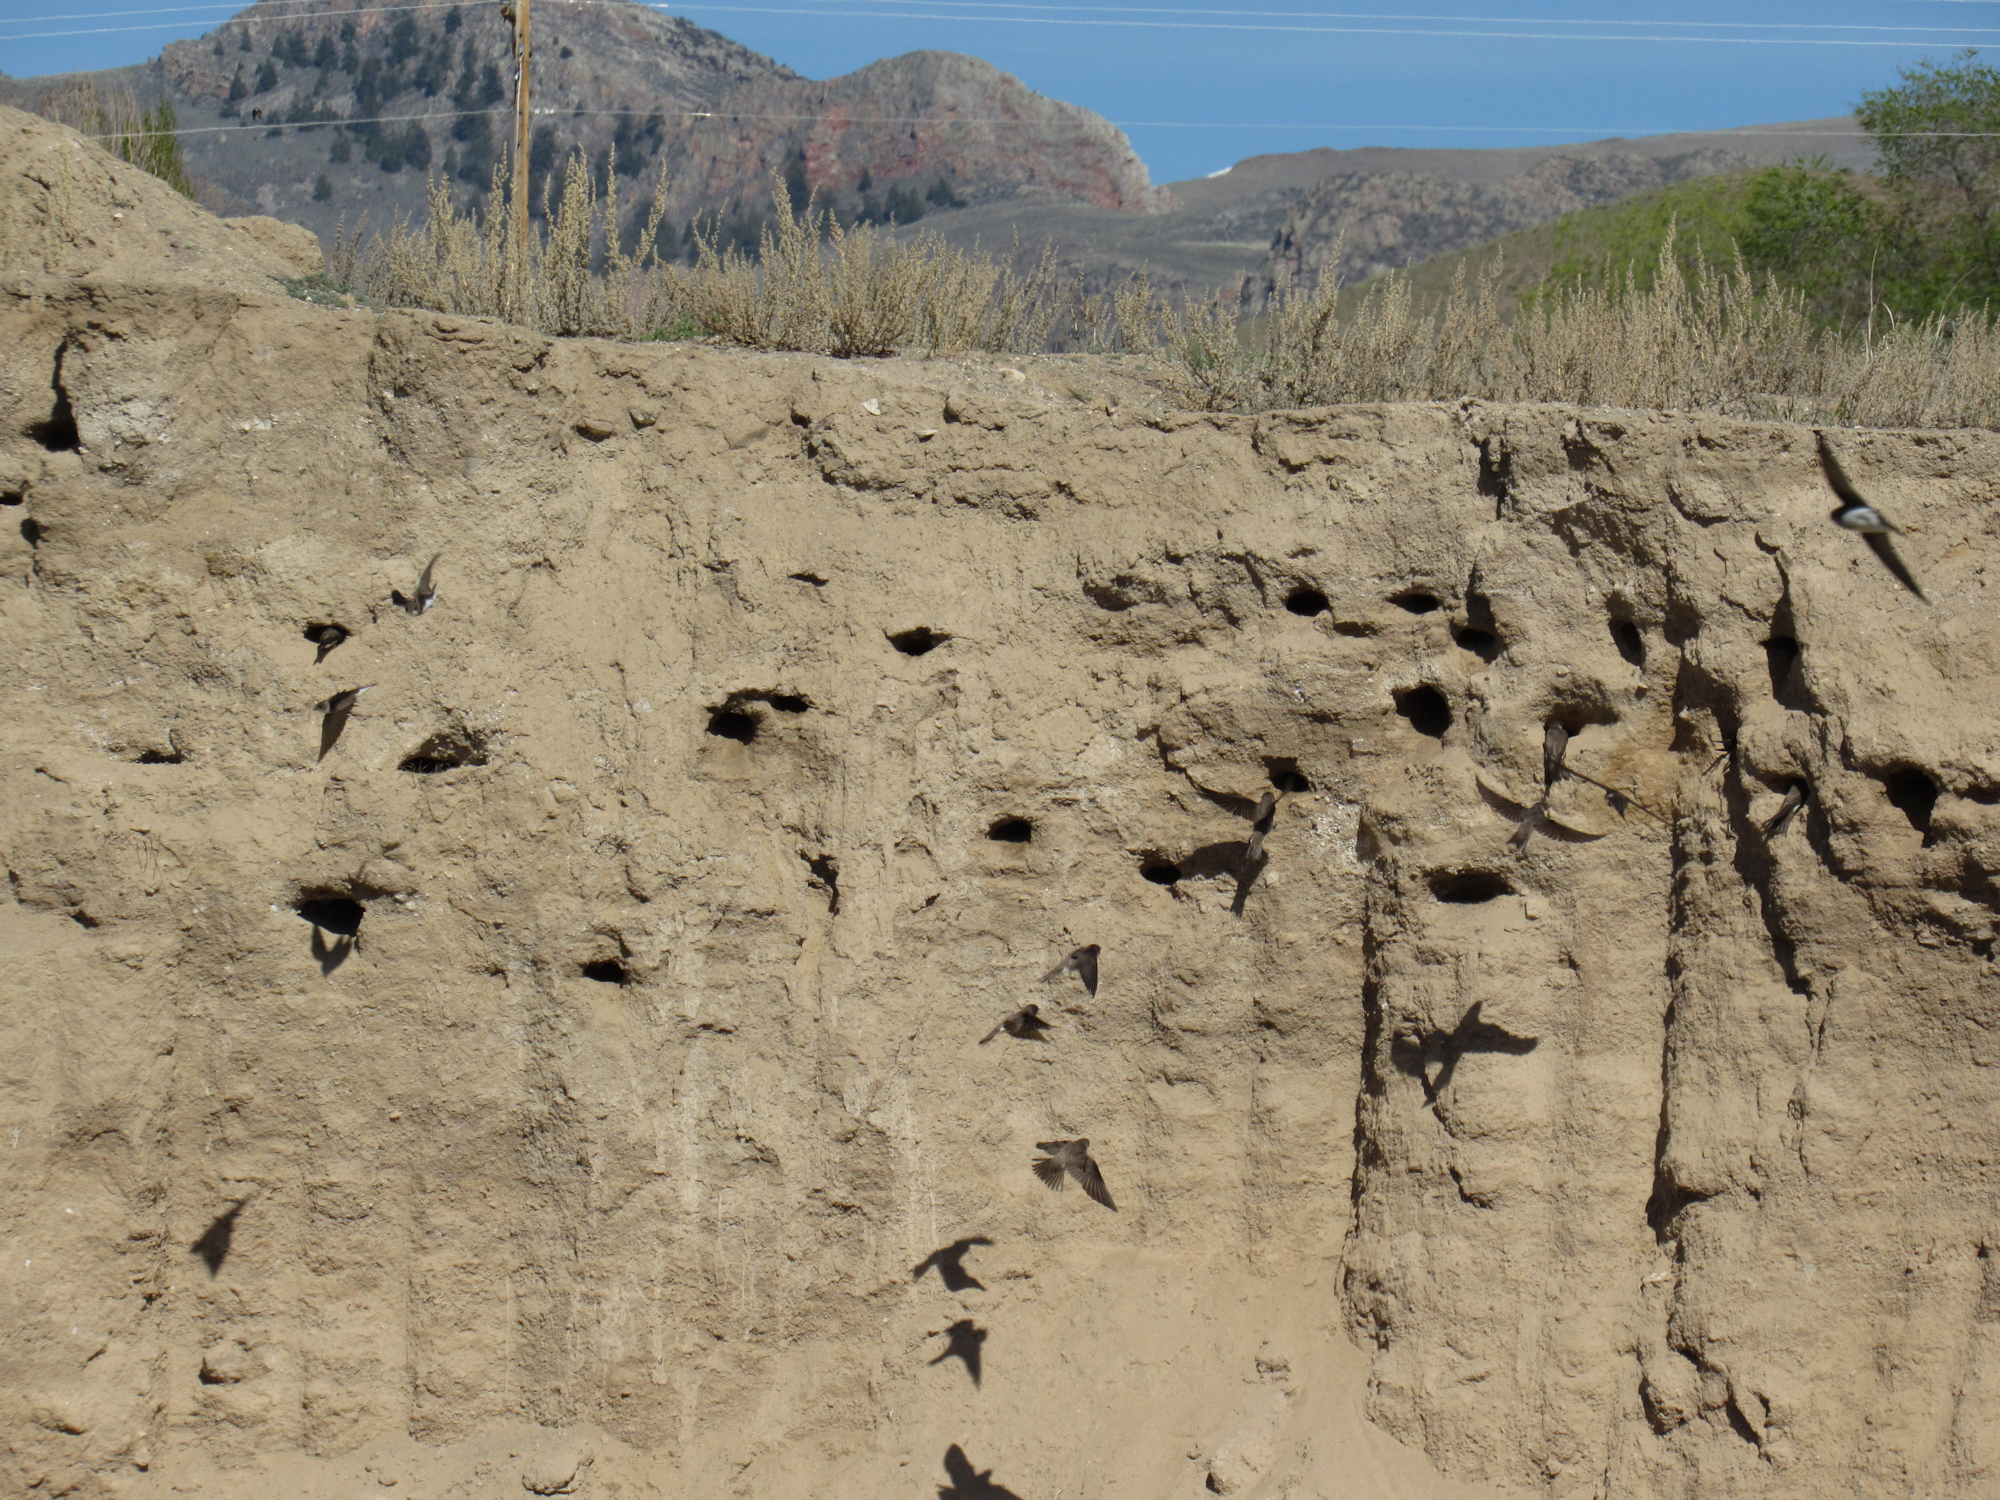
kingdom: Animalia
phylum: Chordata
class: Aves
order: Passeriformes
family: Hirundinidae
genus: Riparia
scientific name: Riparia riparia
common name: Sand martin
